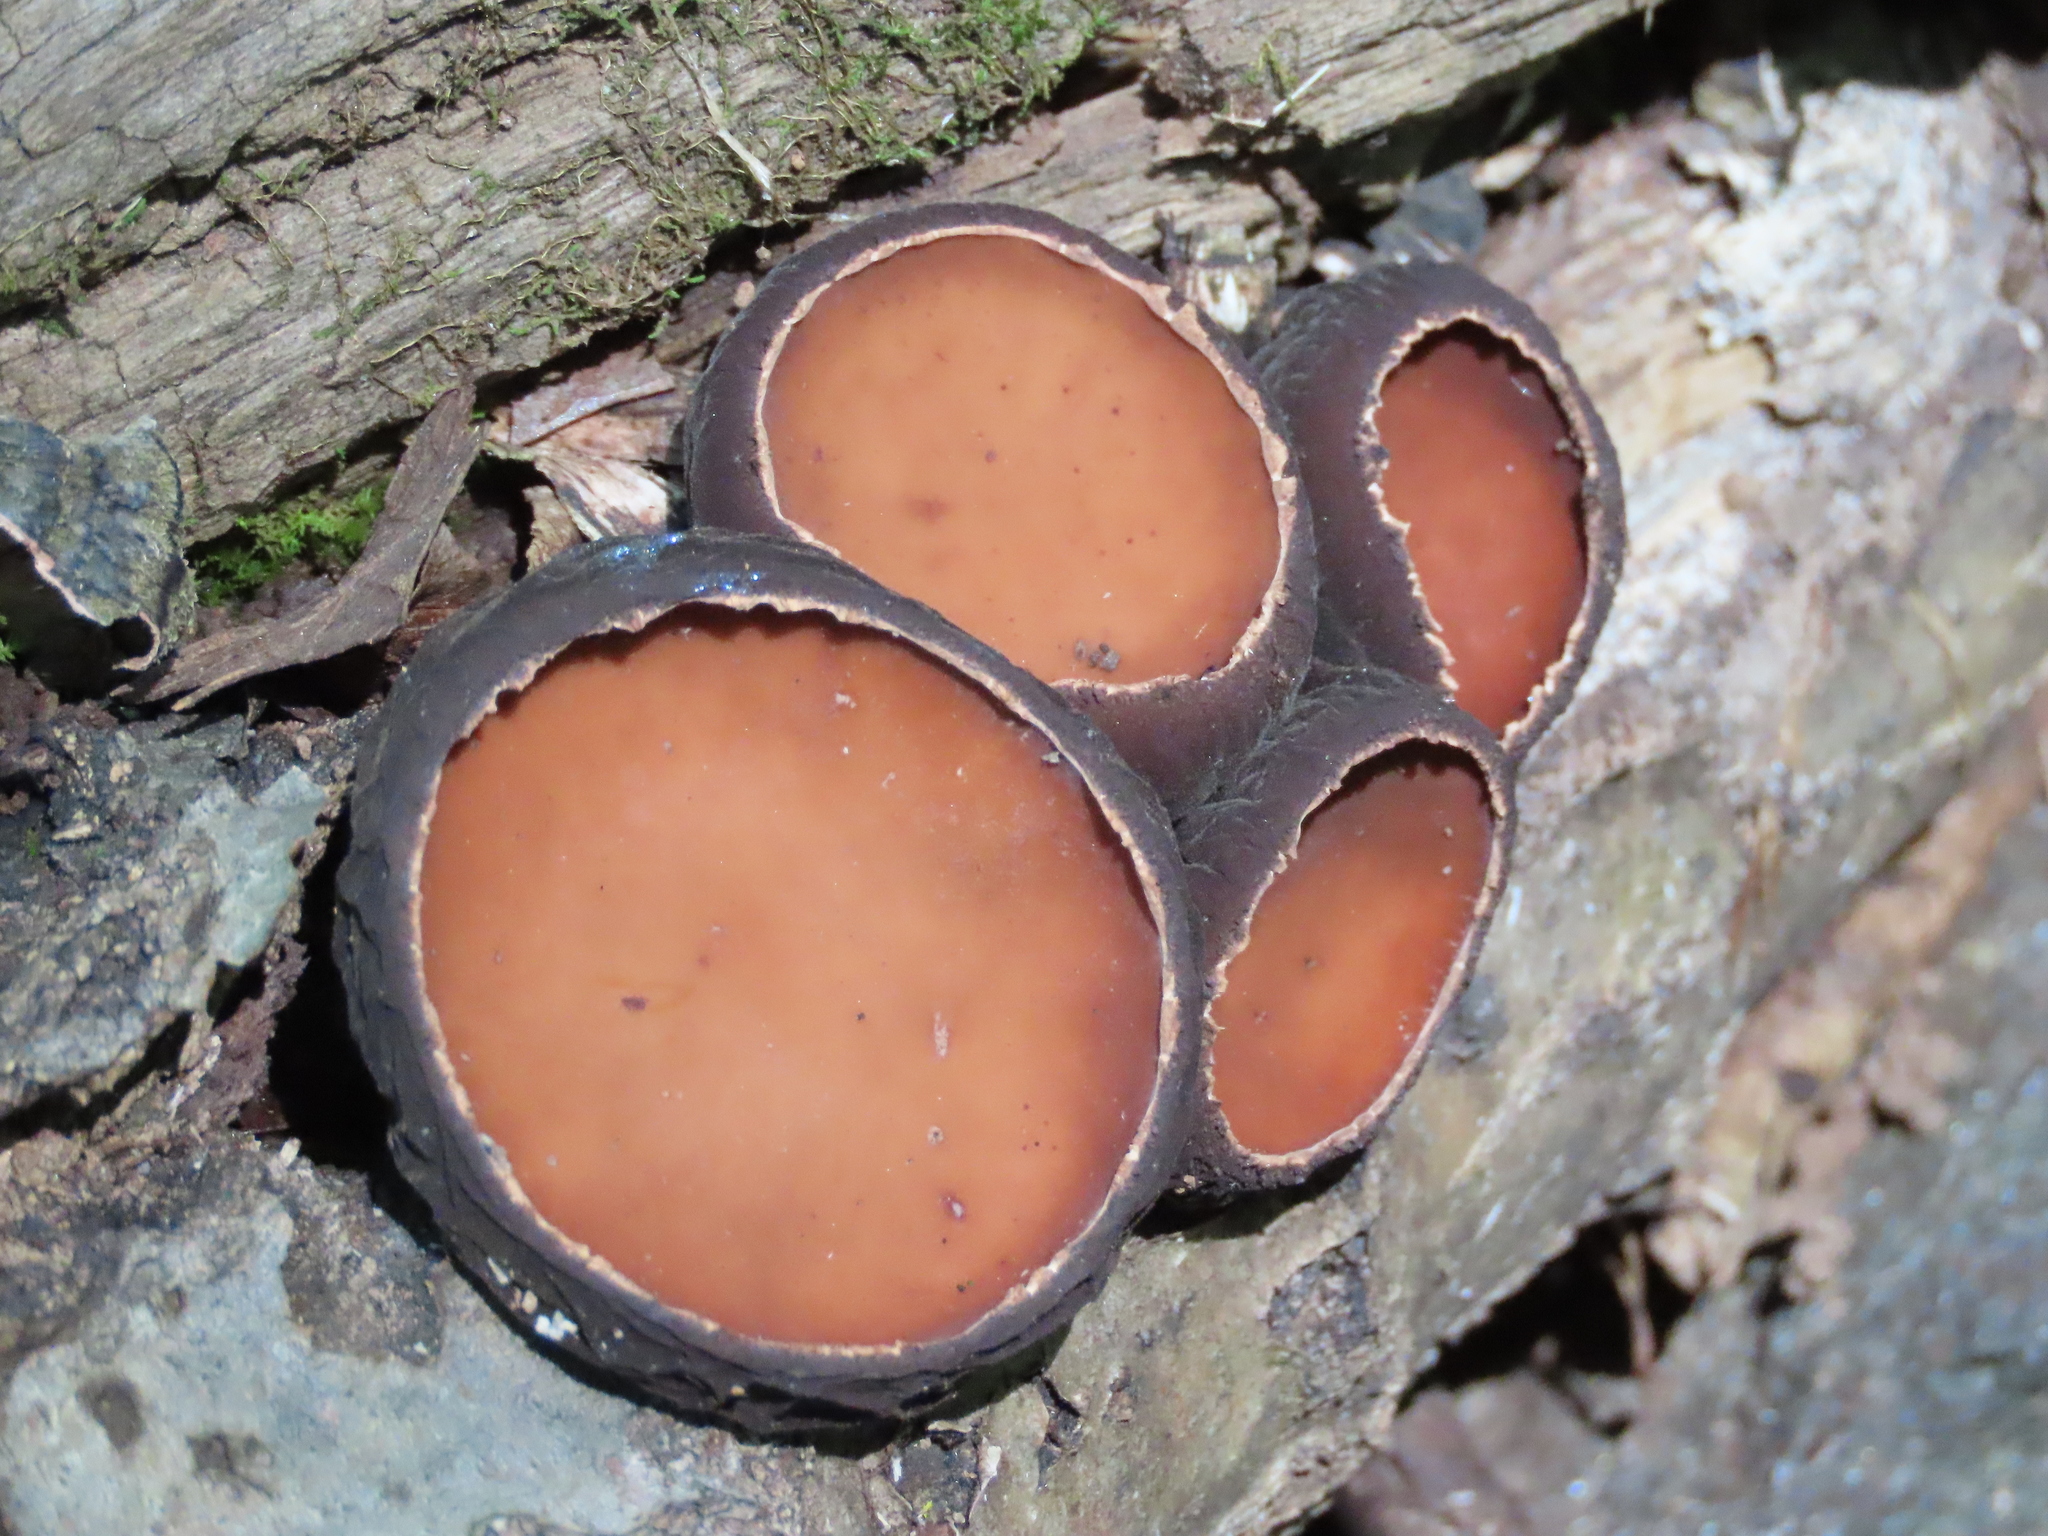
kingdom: Fungi
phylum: Ascomycota
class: Pezizomycetes
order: Pezizales
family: Sarcosomataceae
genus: Galiella
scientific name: Galiella rufa
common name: Hairy rubber cup
